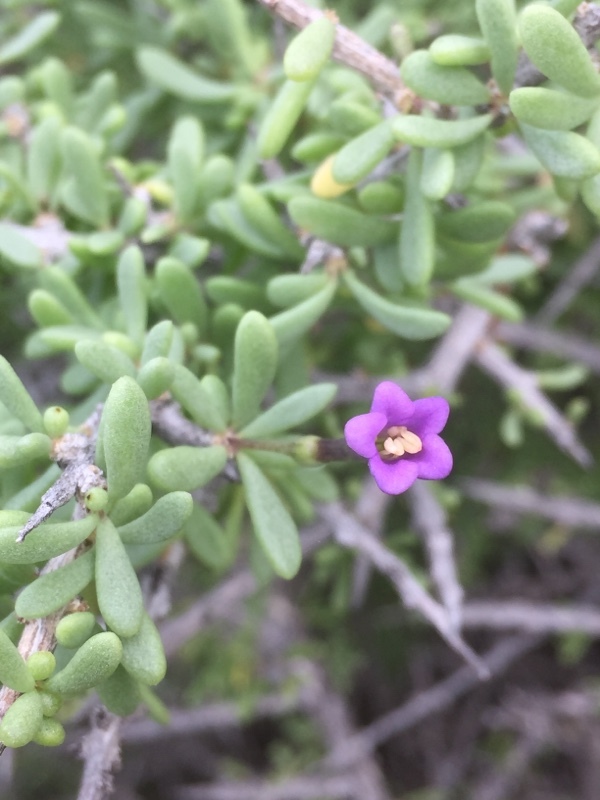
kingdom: Plantae
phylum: Tracheophyta
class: Magnoliopsida
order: Solanales
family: Solanaceae
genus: Lycium
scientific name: Lycium intricatum
